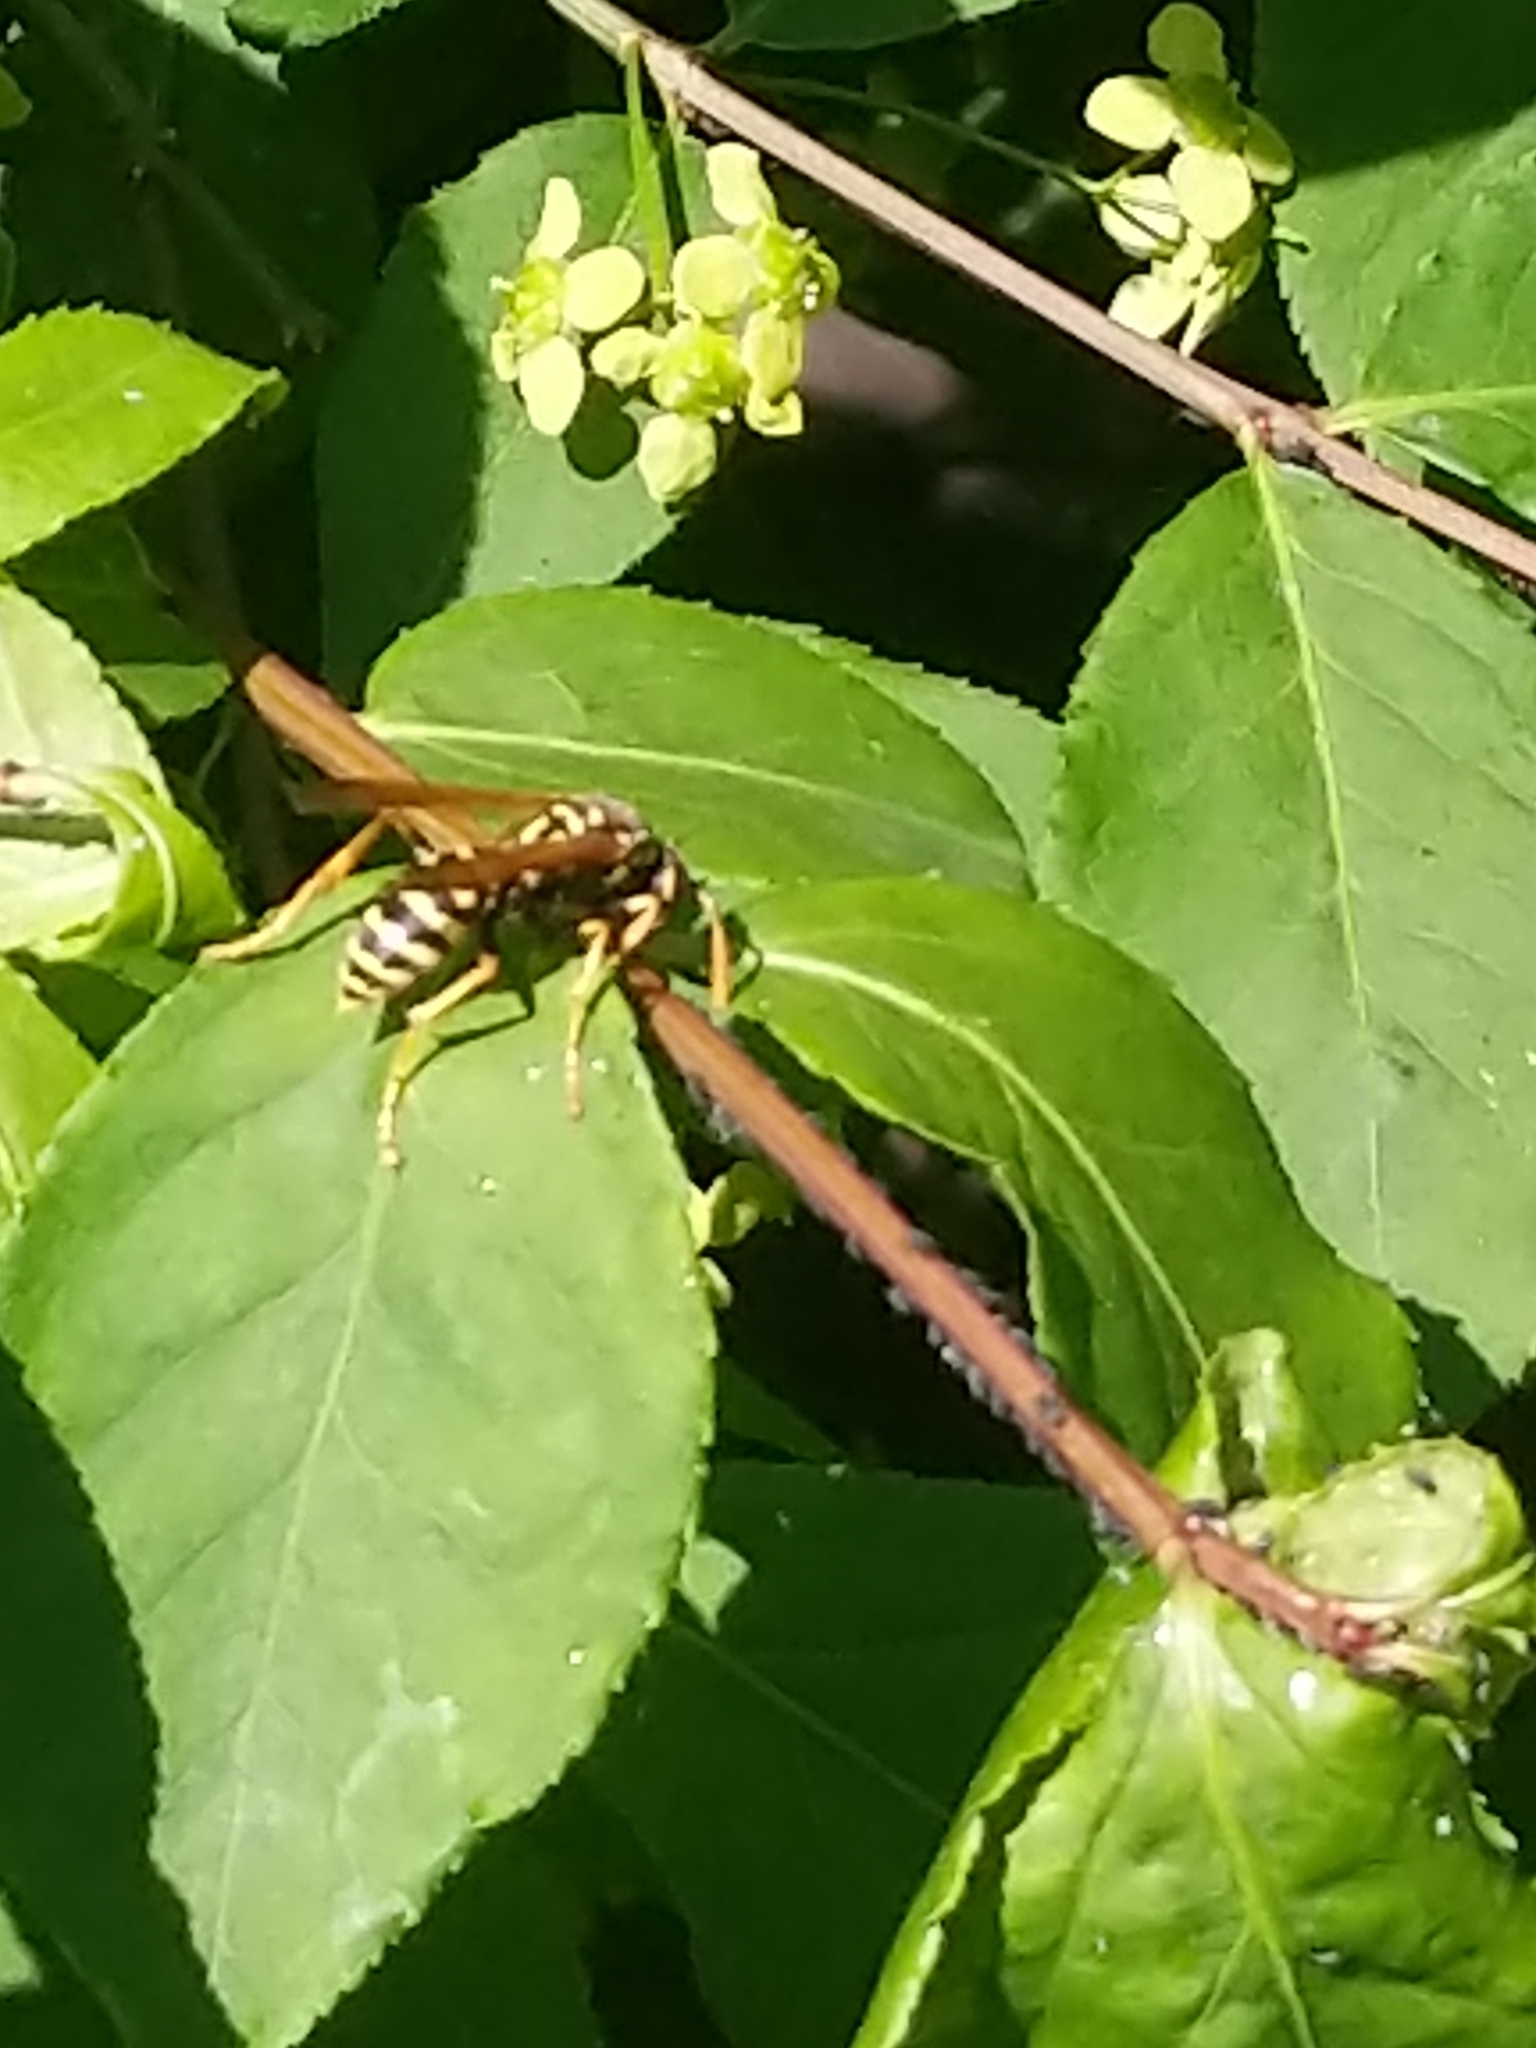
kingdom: Animalia
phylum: Arthropoda
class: Insecta
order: Hymenoptera
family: Eumenidae
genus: Polistes
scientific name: Polistes dominula
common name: Paper wasp
